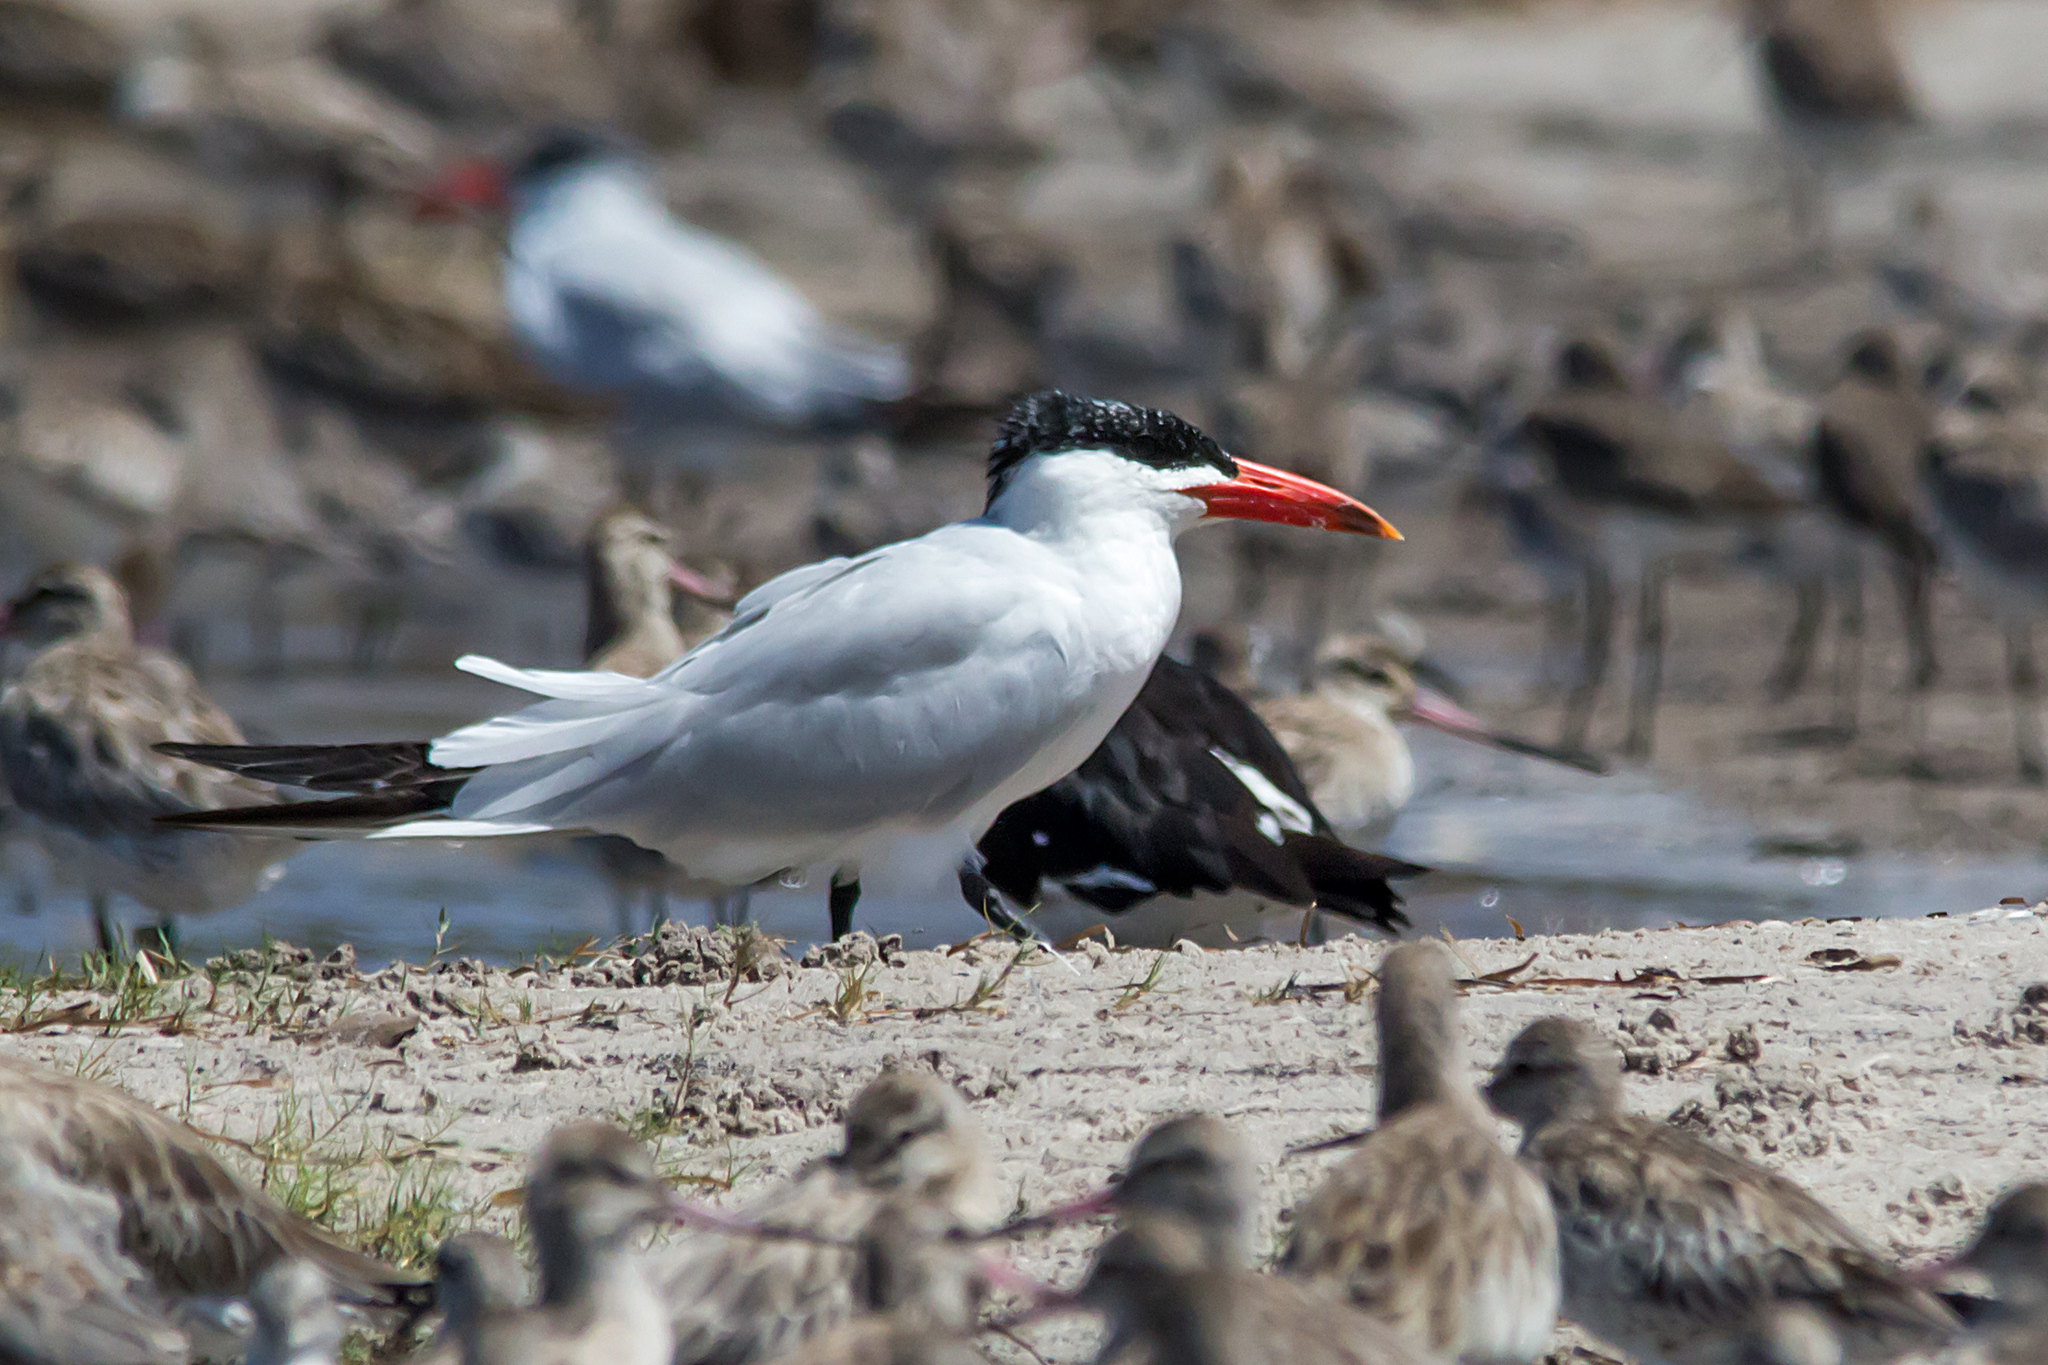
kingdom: Animalia
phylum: Chordata
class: Aves
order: Charadriiformes
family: Laridae
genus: Hydroprogne
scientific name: Hydroprogne caspia
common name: Caspian tern
